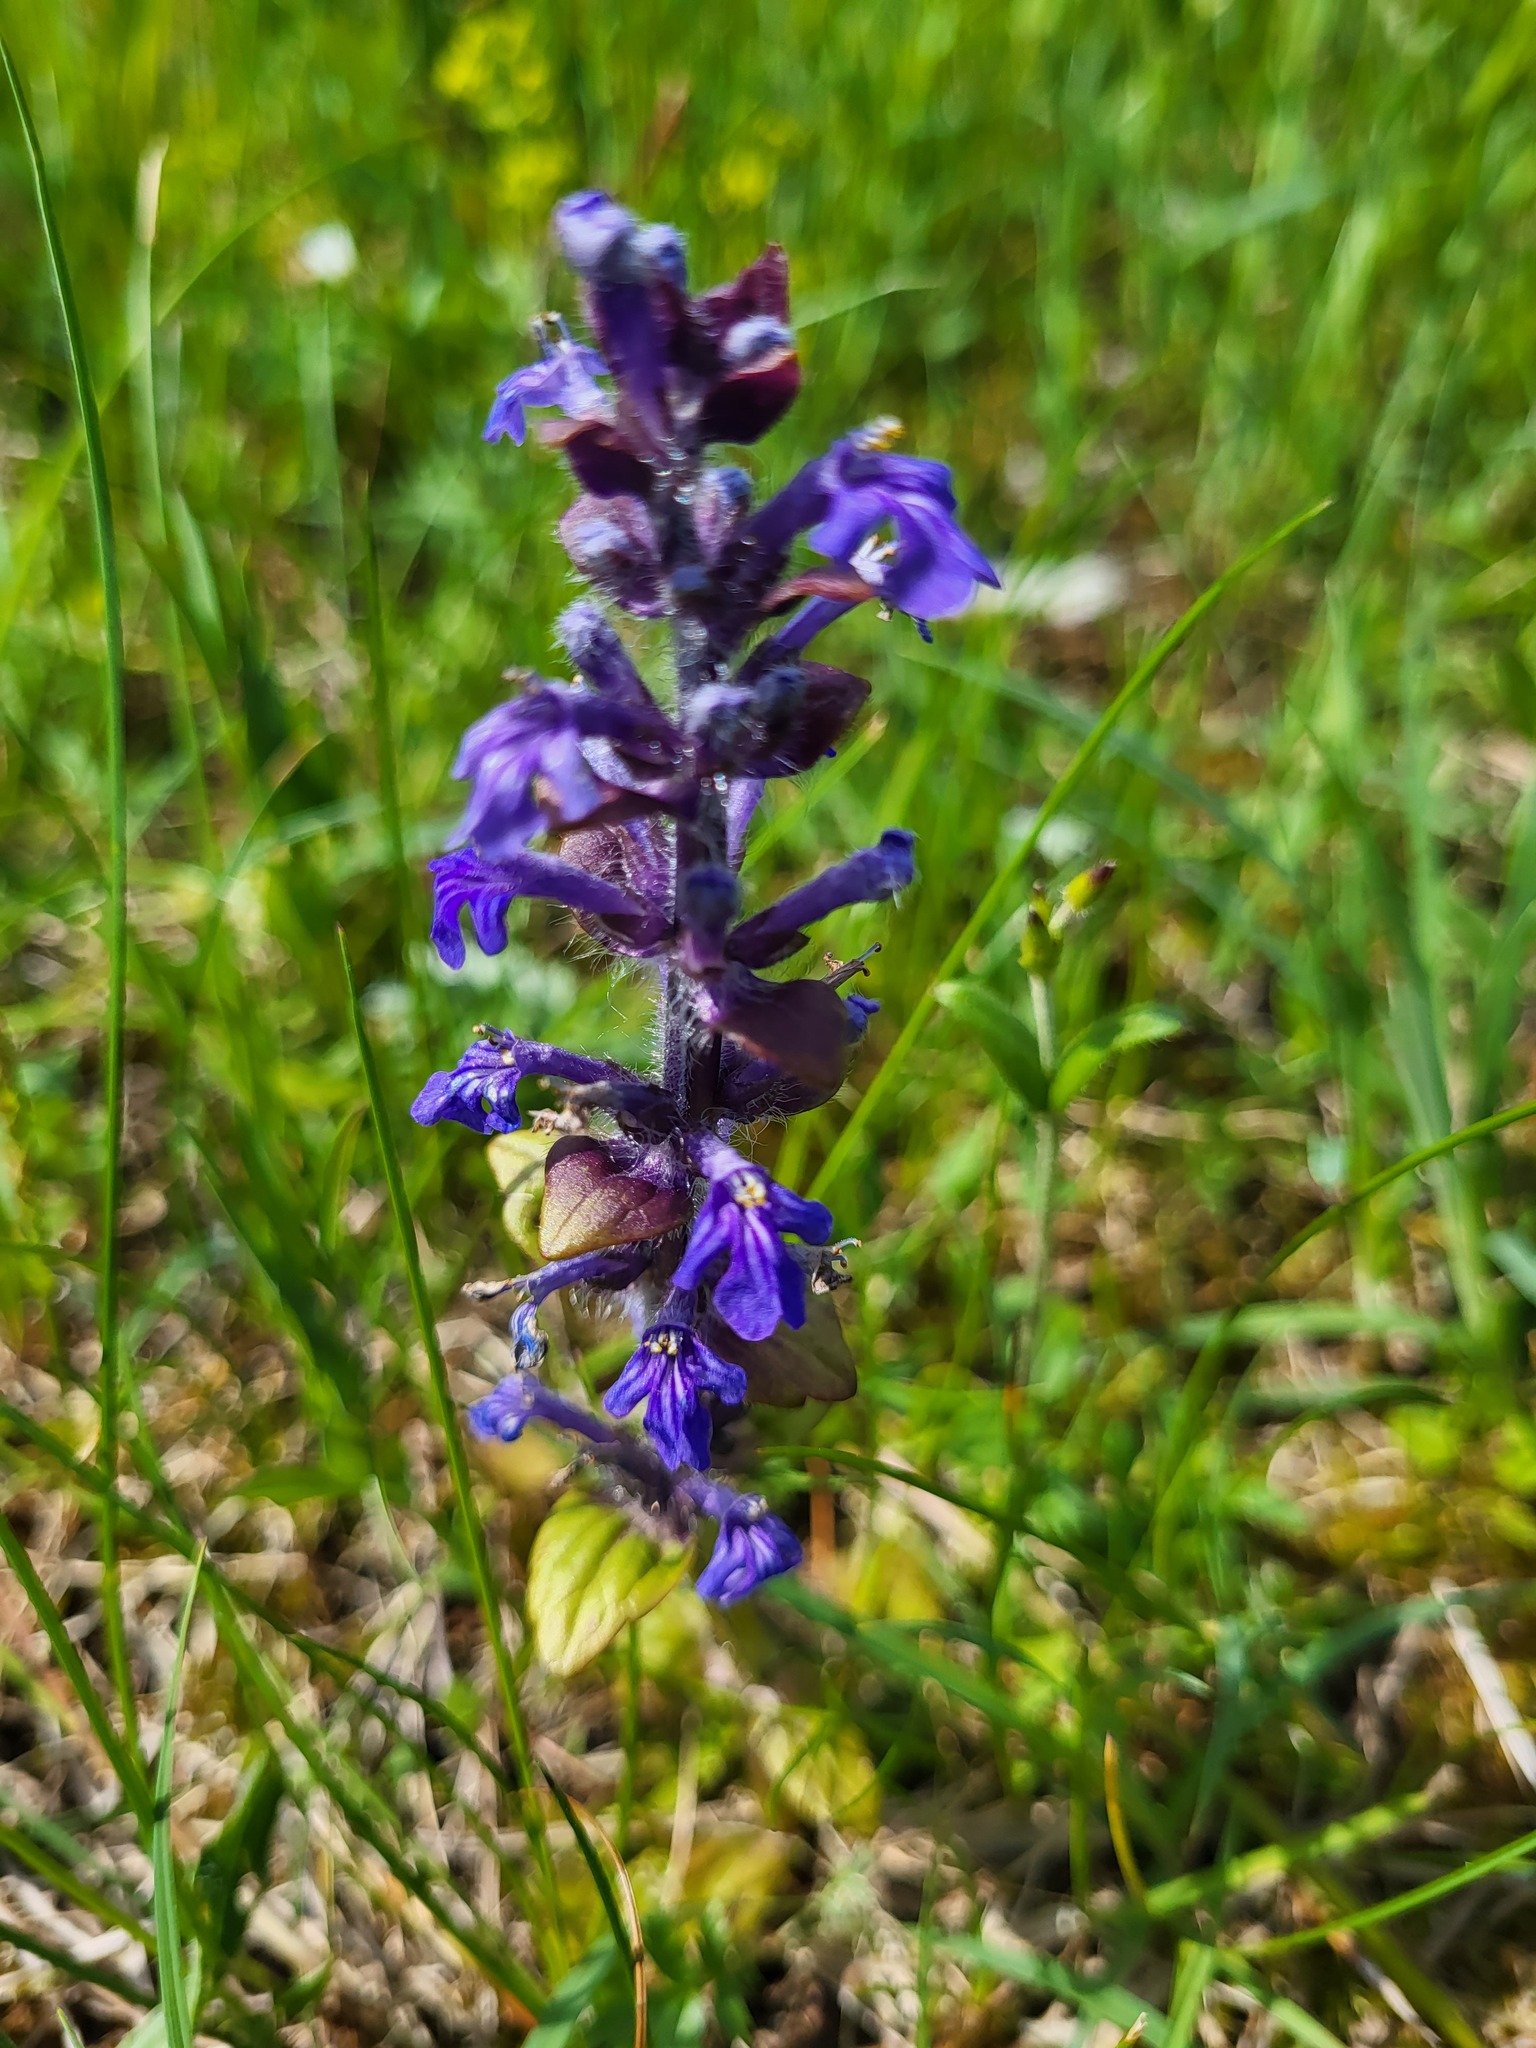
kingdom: Plantae
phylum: Tracheophyta
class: Magnoliopsida
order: Lamiales
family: Lamiaceae
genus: Ajuga
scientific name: Ajuga reptans
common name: Bugle
